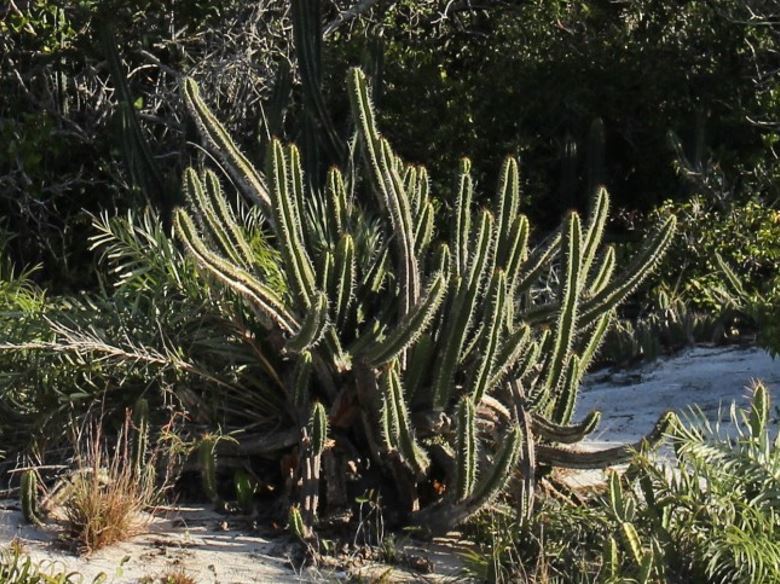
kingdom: Plantae
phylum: Tracheophyta
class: Magnoliopsida
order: Caryophyllales
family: Cactaceae
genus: Pilosocereus
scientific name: Pilosocereus arrabidae
